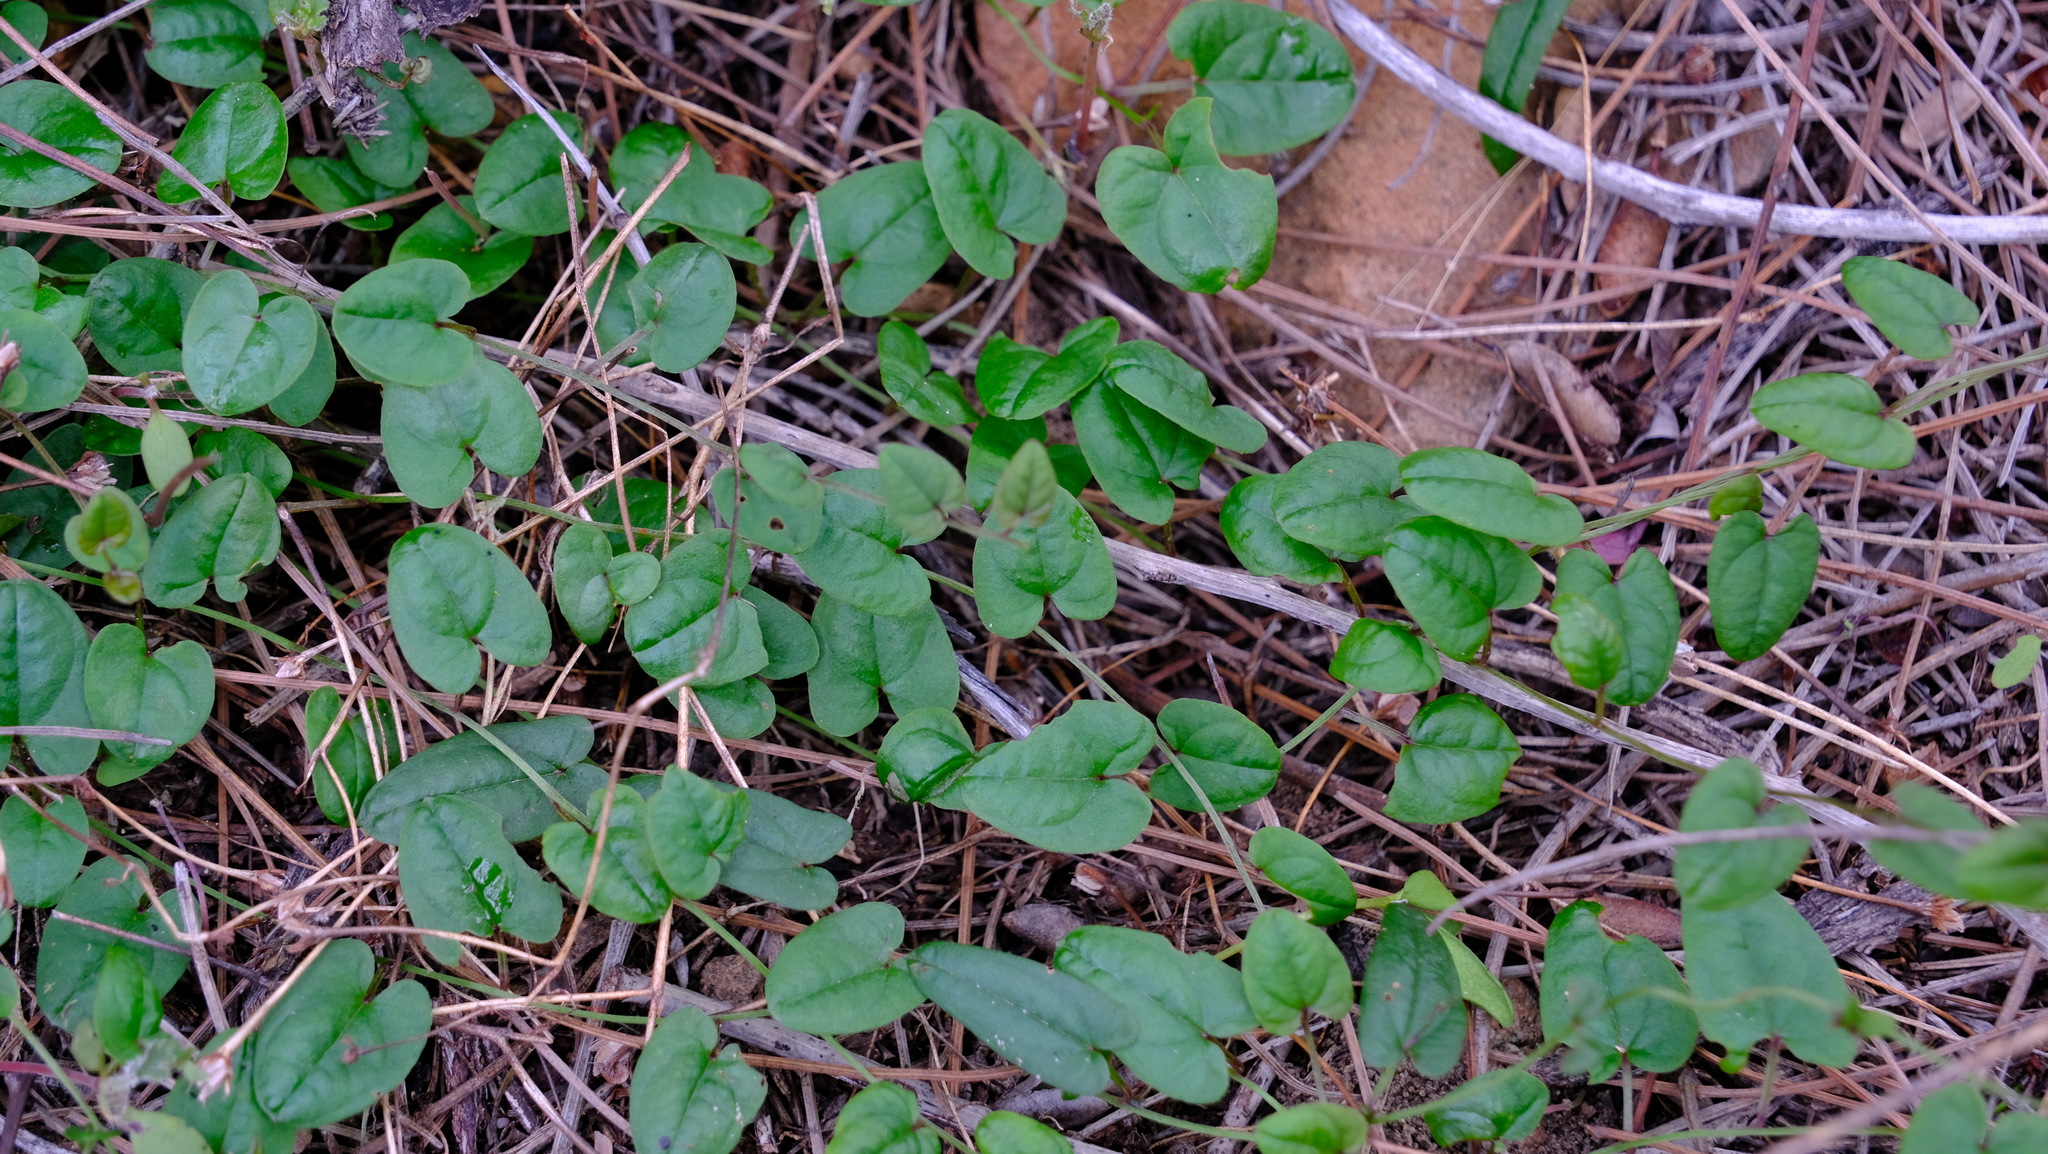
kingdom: Plantae
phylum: Tracheophyta
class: Liliopsida
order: Dioscoreales
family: Dioscoreaceae
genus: Dioscorea
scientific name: Dioscorea hastifolia
